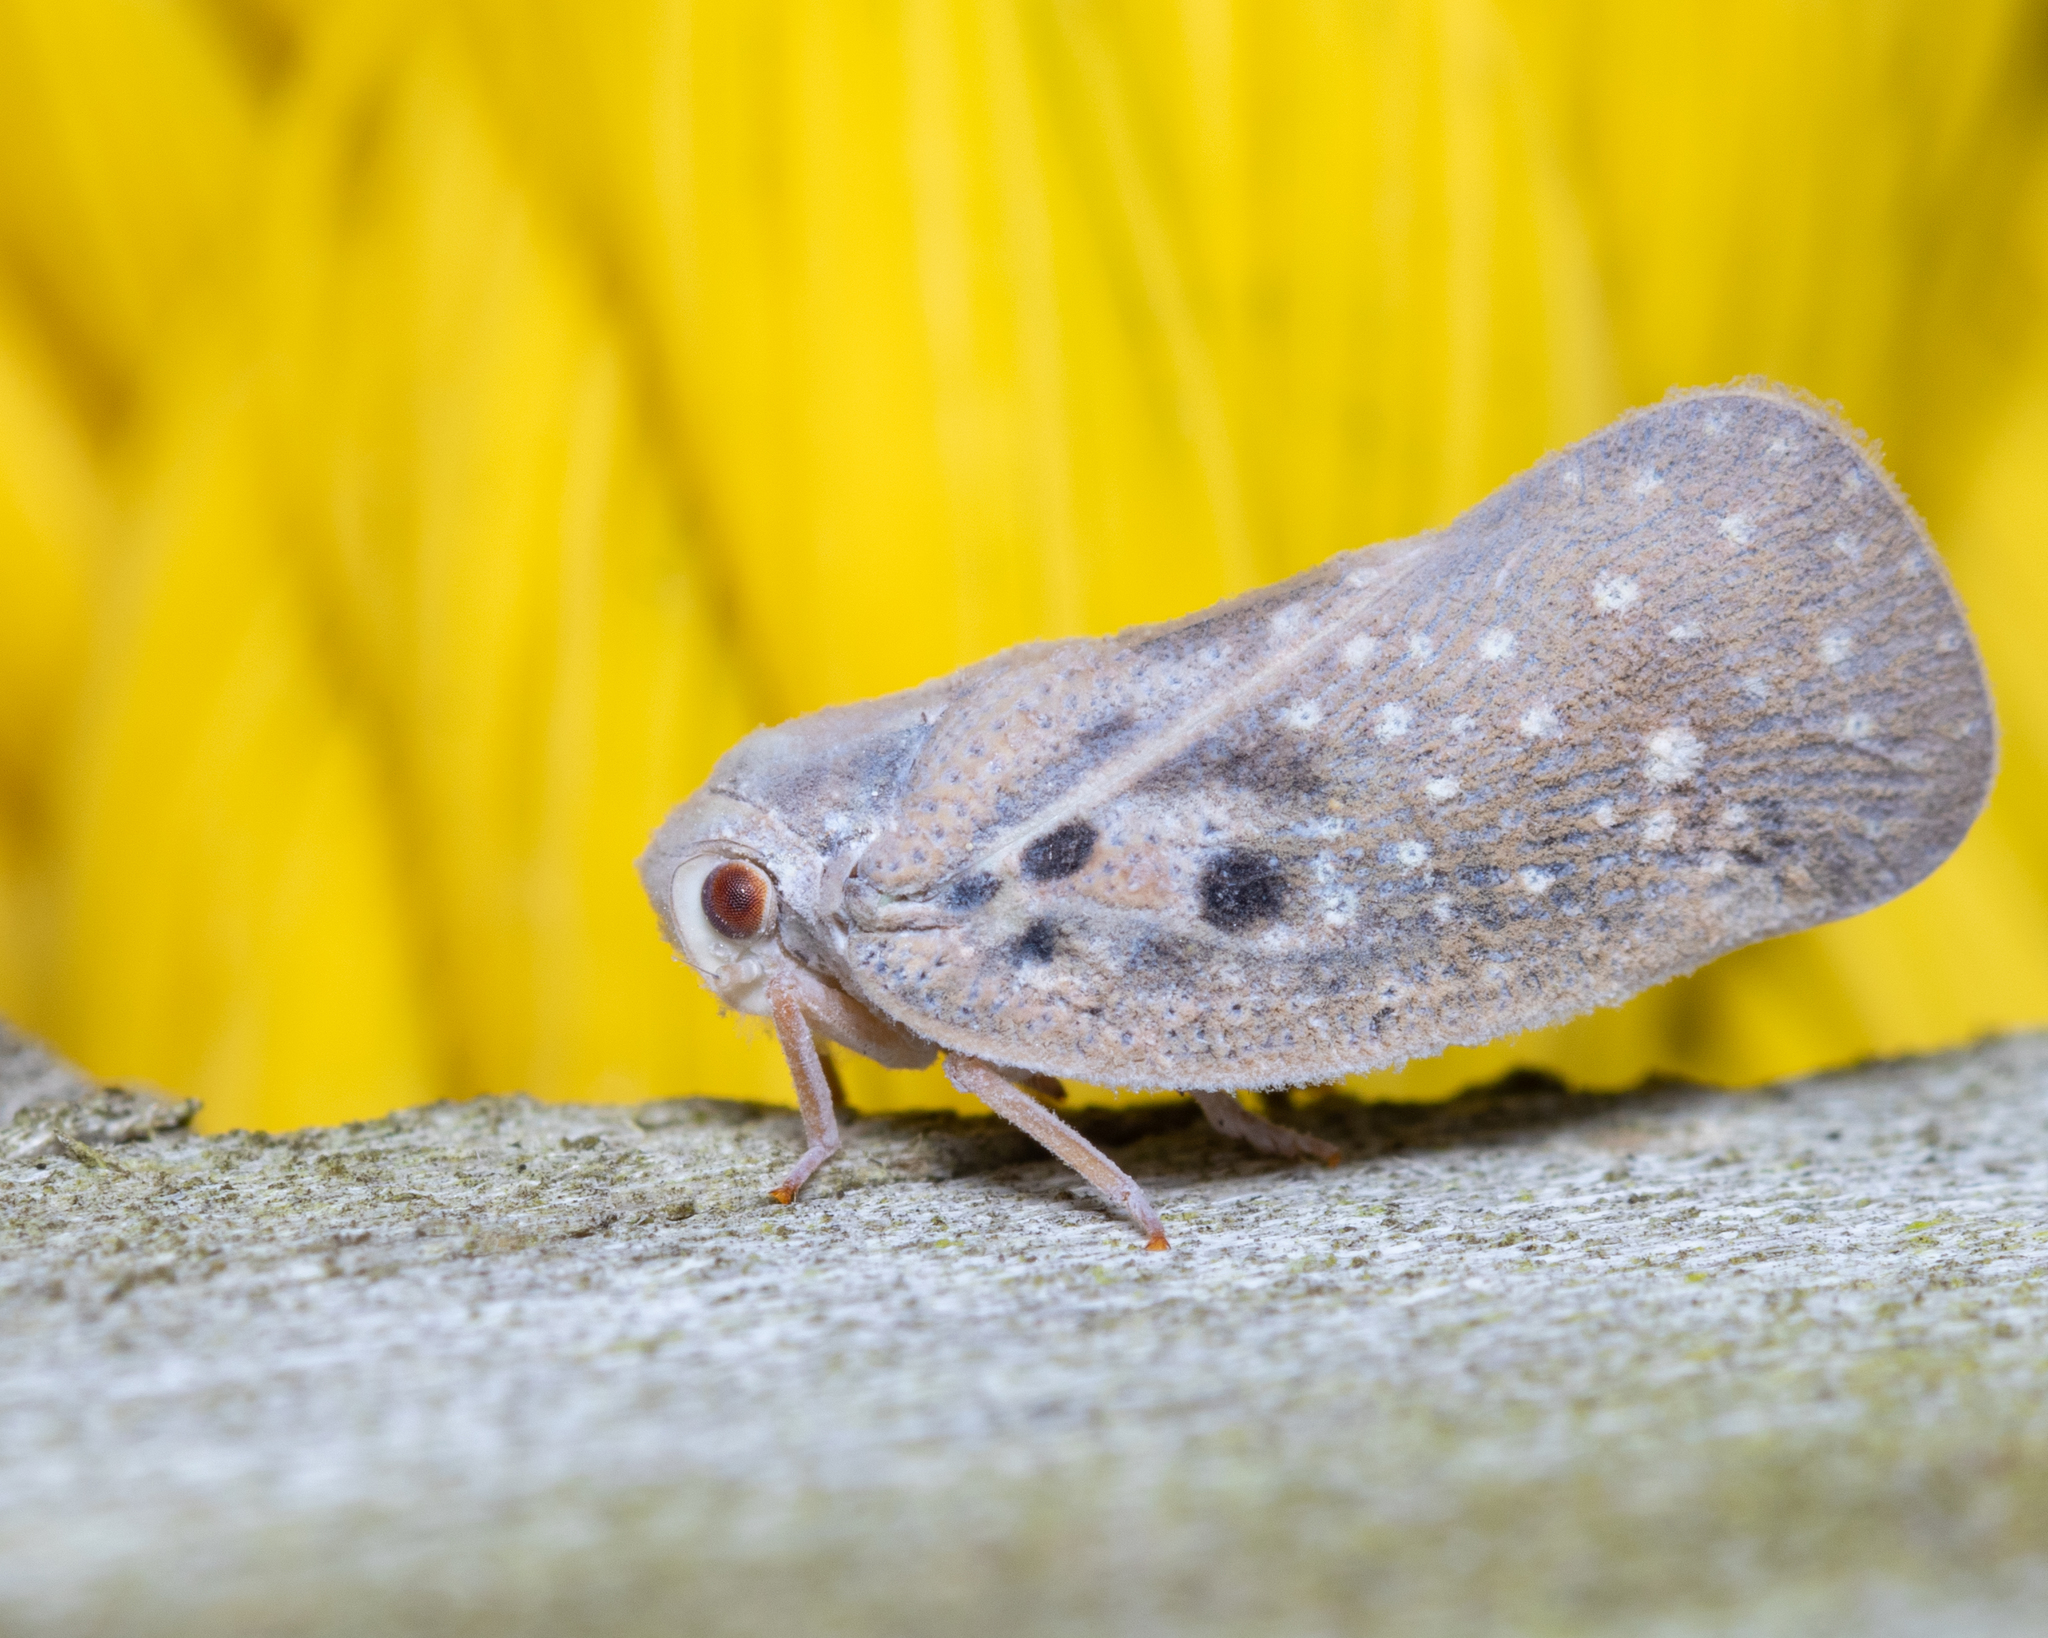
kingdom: Animalia
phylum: Arthropoda
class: Insecta
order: Hemiptera
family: Flatidae
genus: Metcalfa
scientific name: Metcalfa pruinosa
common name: Citrus flatid planthopper
